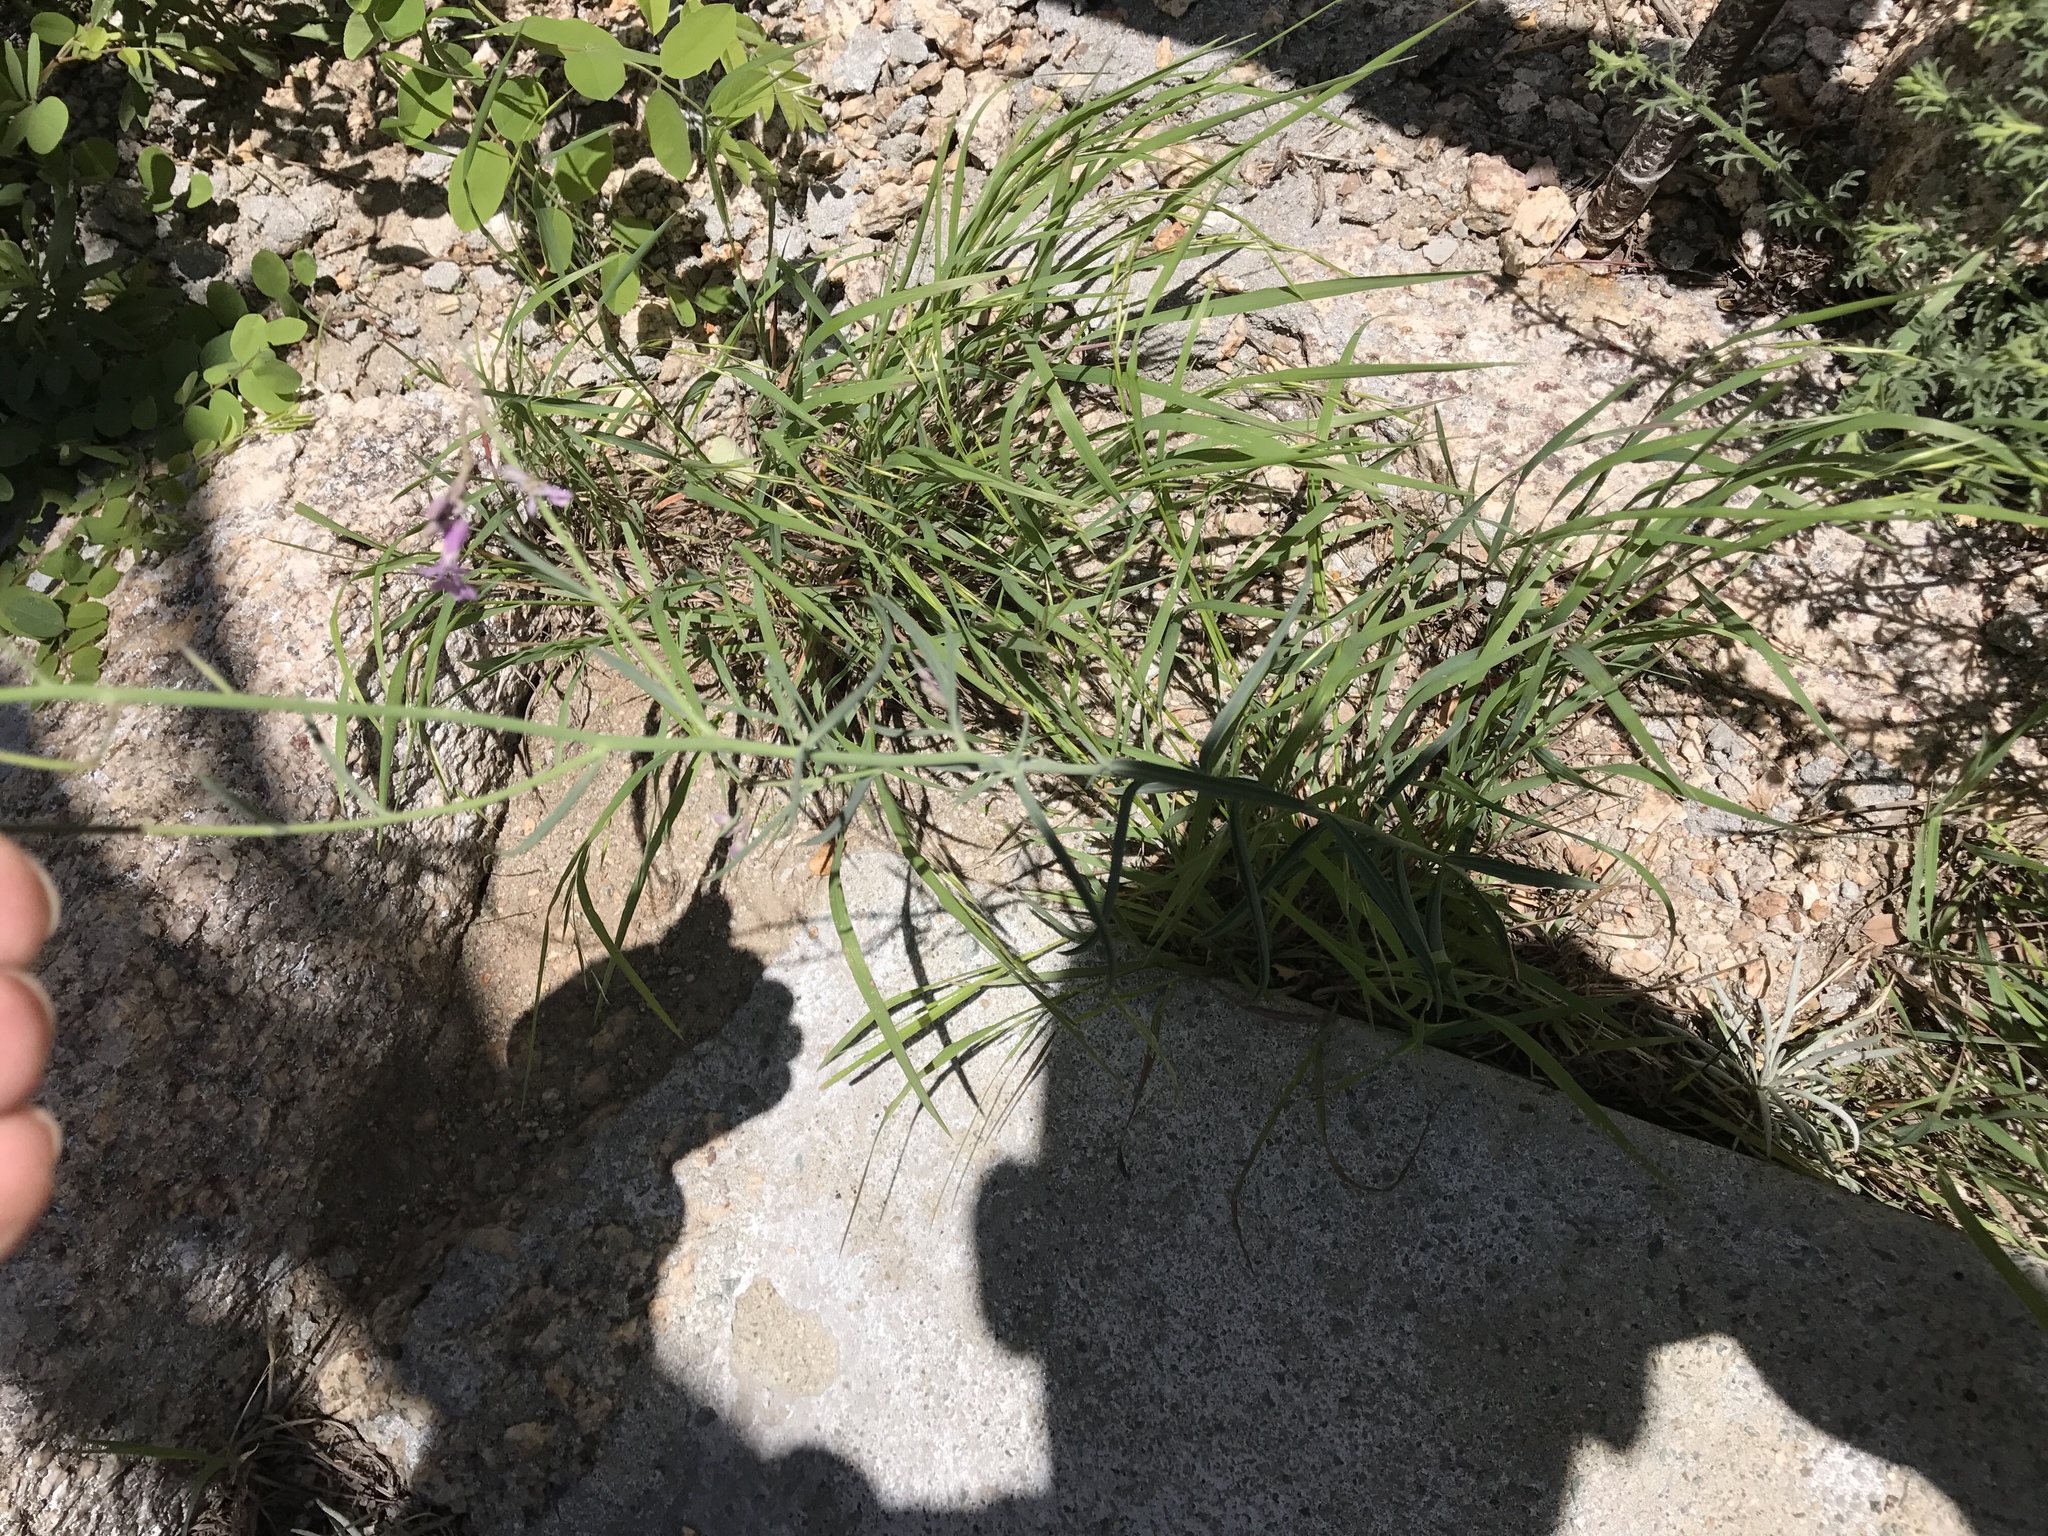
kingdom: Plantae
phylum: Tracheophyta
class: Magnoliopsida
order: Brassicales
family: Brassicaceae
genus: Hesperidanthus
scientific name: Hesperidanthus linearifolius
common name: Slim-leaf plains mustard
